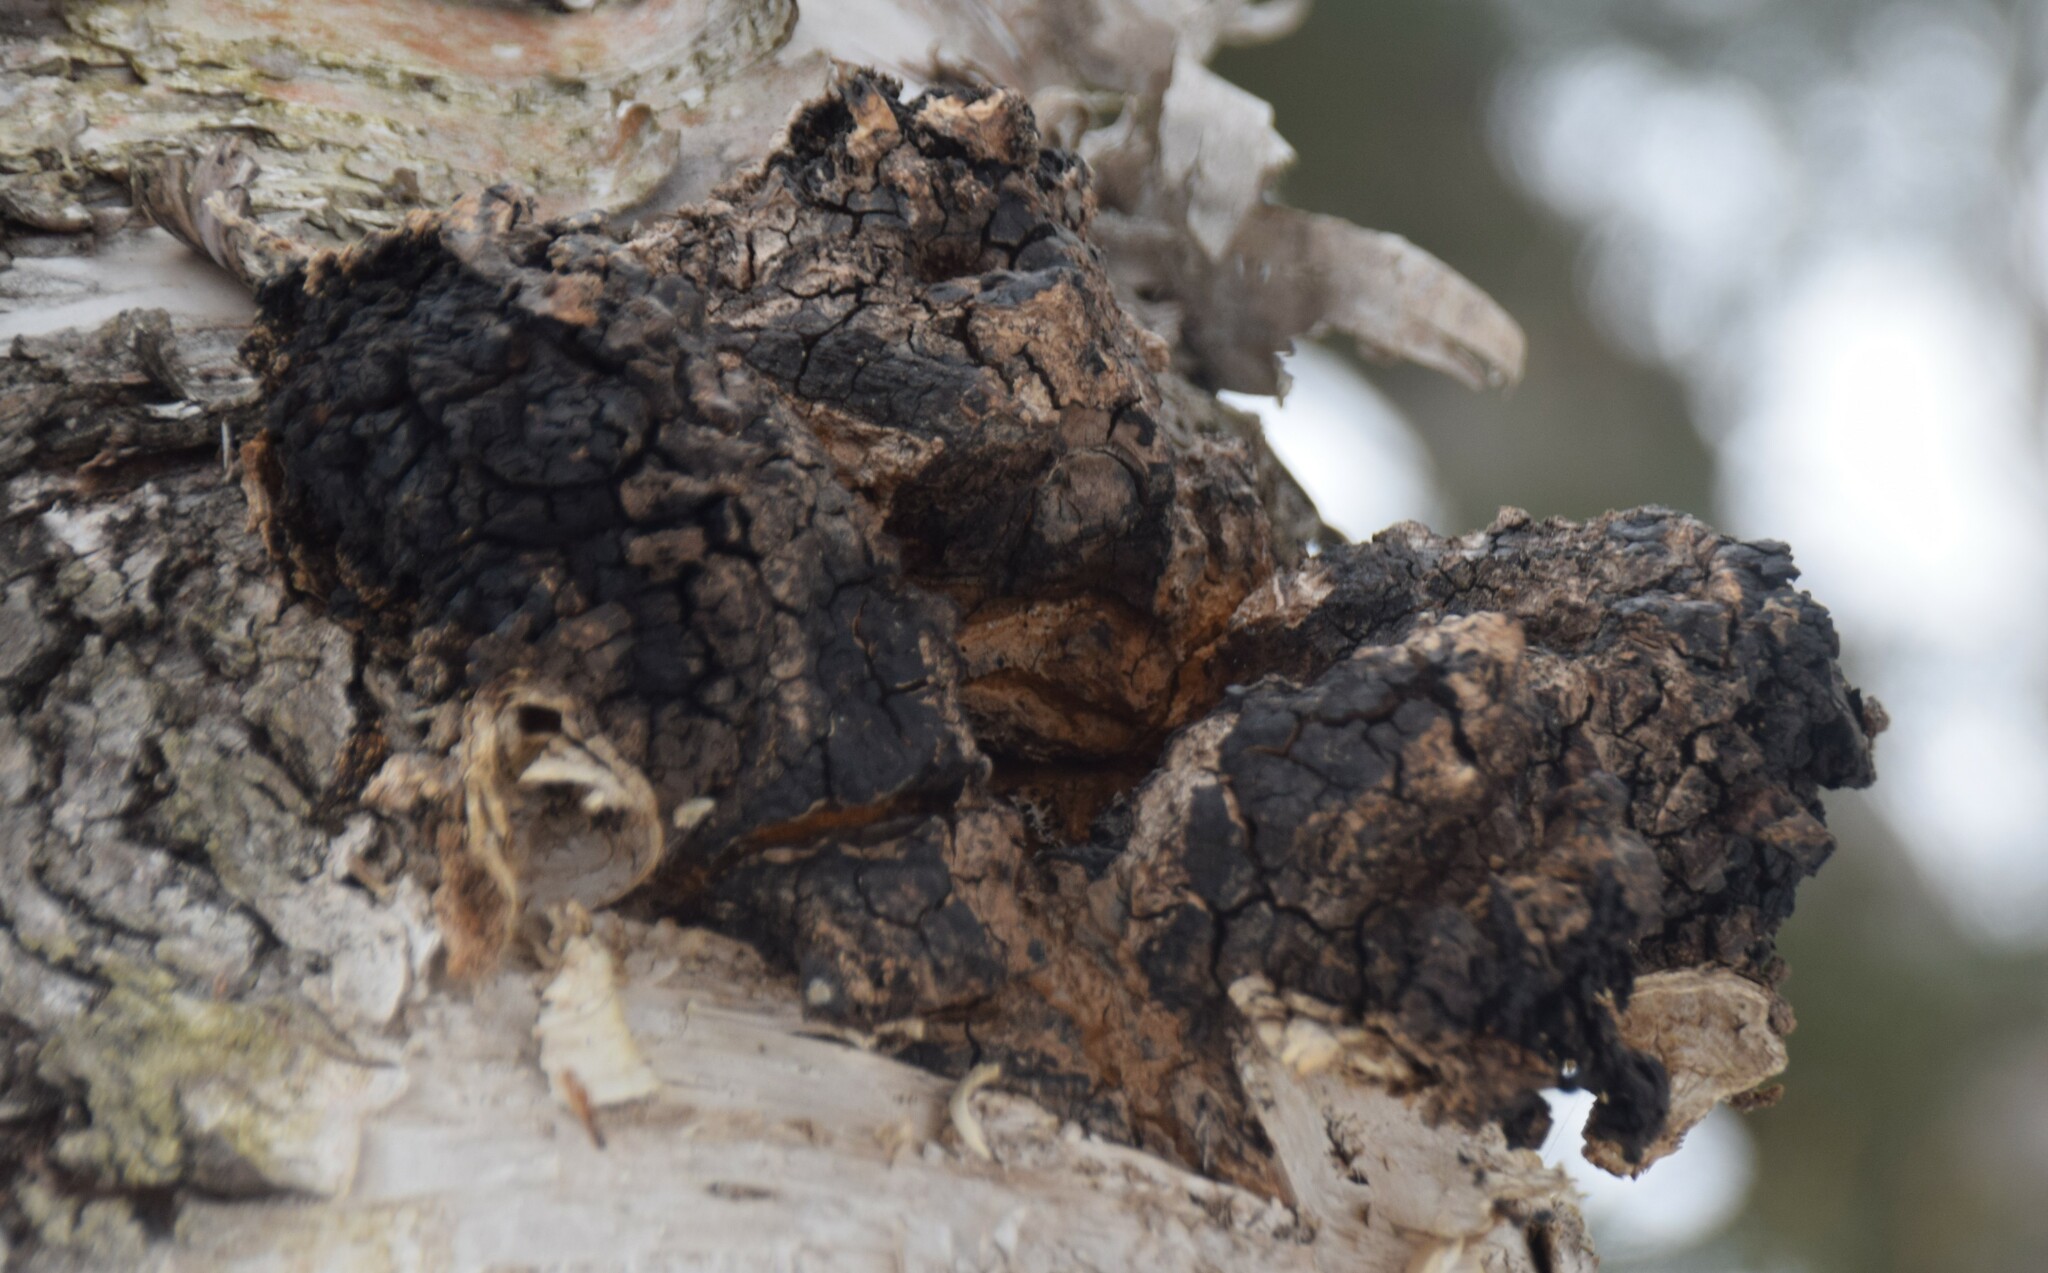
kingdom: Fungi
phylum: Basidiomycota
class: Agaricomycetes
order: Hymenochaetales
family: Hymenochaetaceae
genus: Inonotus
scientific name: Inonotus obliquus
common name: Chaga
